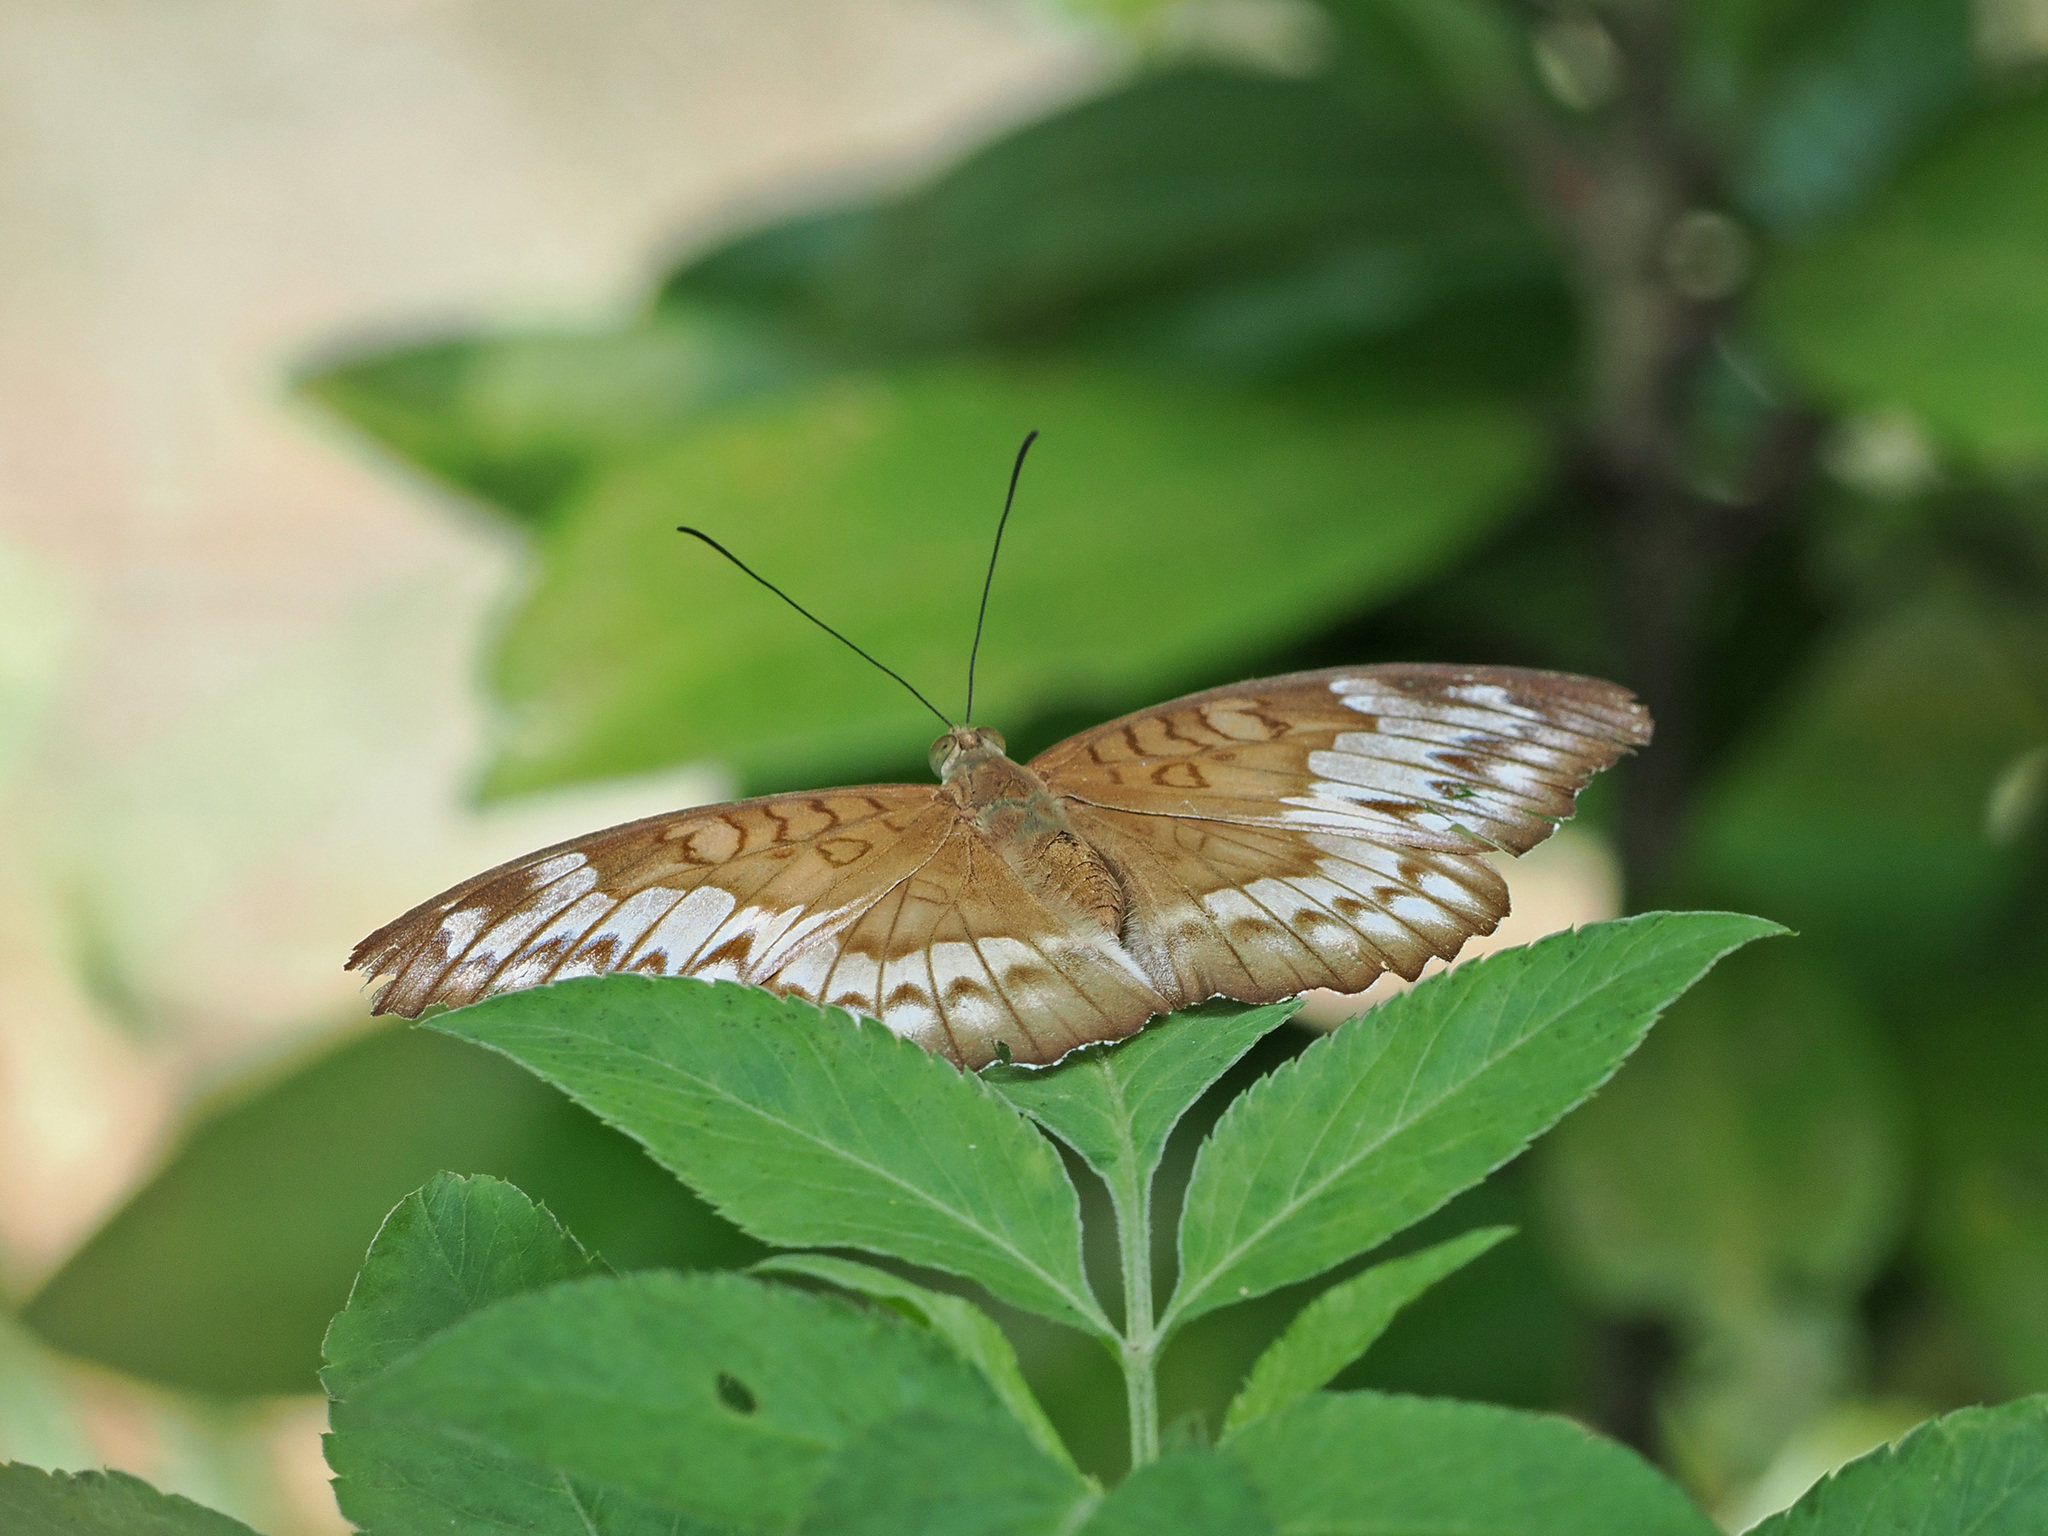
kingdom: Animalia
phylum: Arthropoda
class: Insecta
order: Lepidoptera
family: Nymphalidae
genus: Euthalia
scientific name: Euthalia monina
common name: Powdered baron
